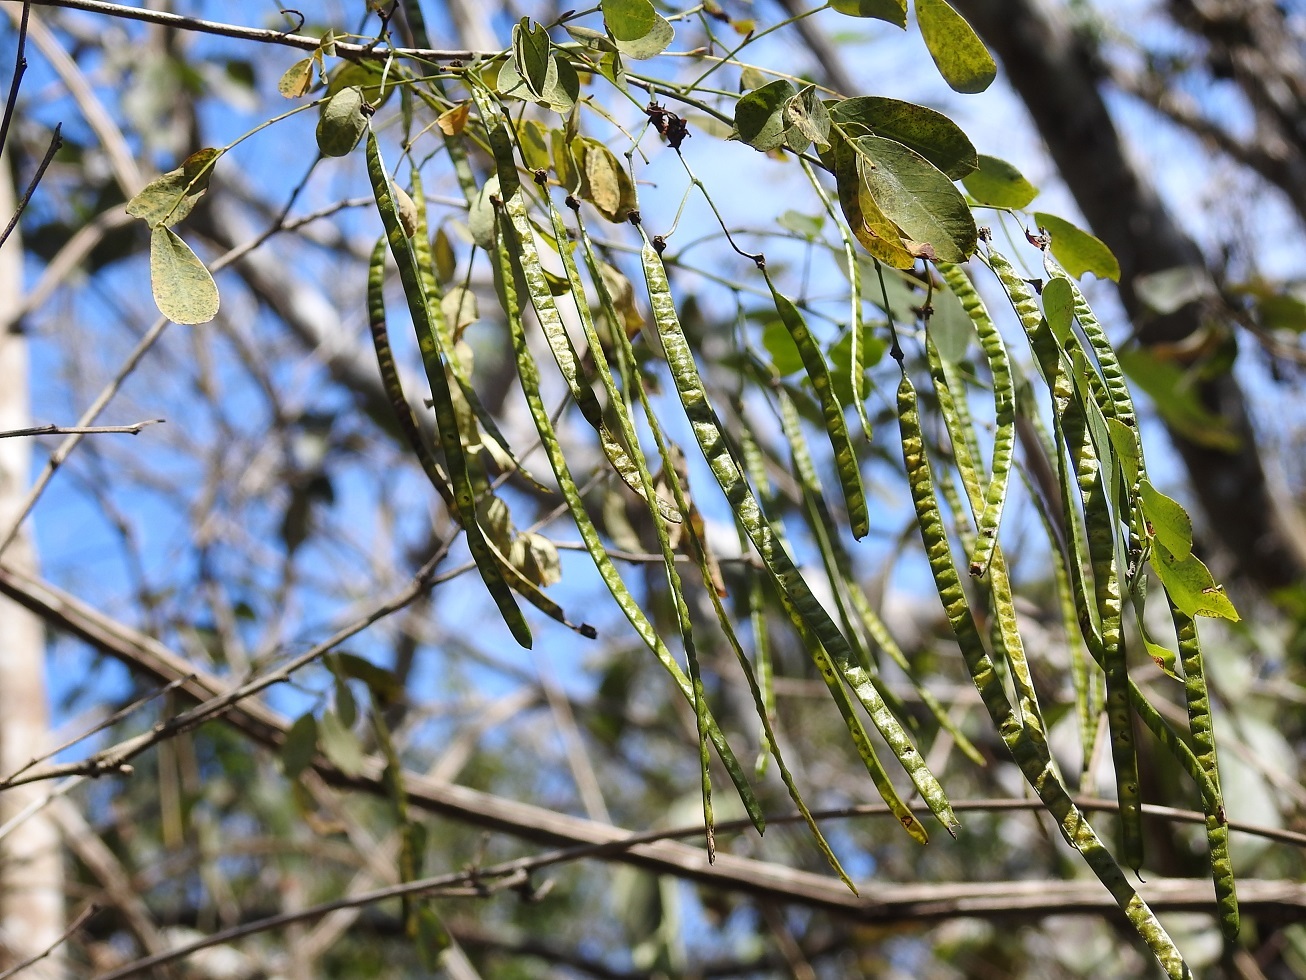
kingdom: Plantae
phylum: Tracheophyta
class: Magnoliopsida
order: Fabales
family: Fabaceae
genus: Senna
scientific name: Senna pallida
